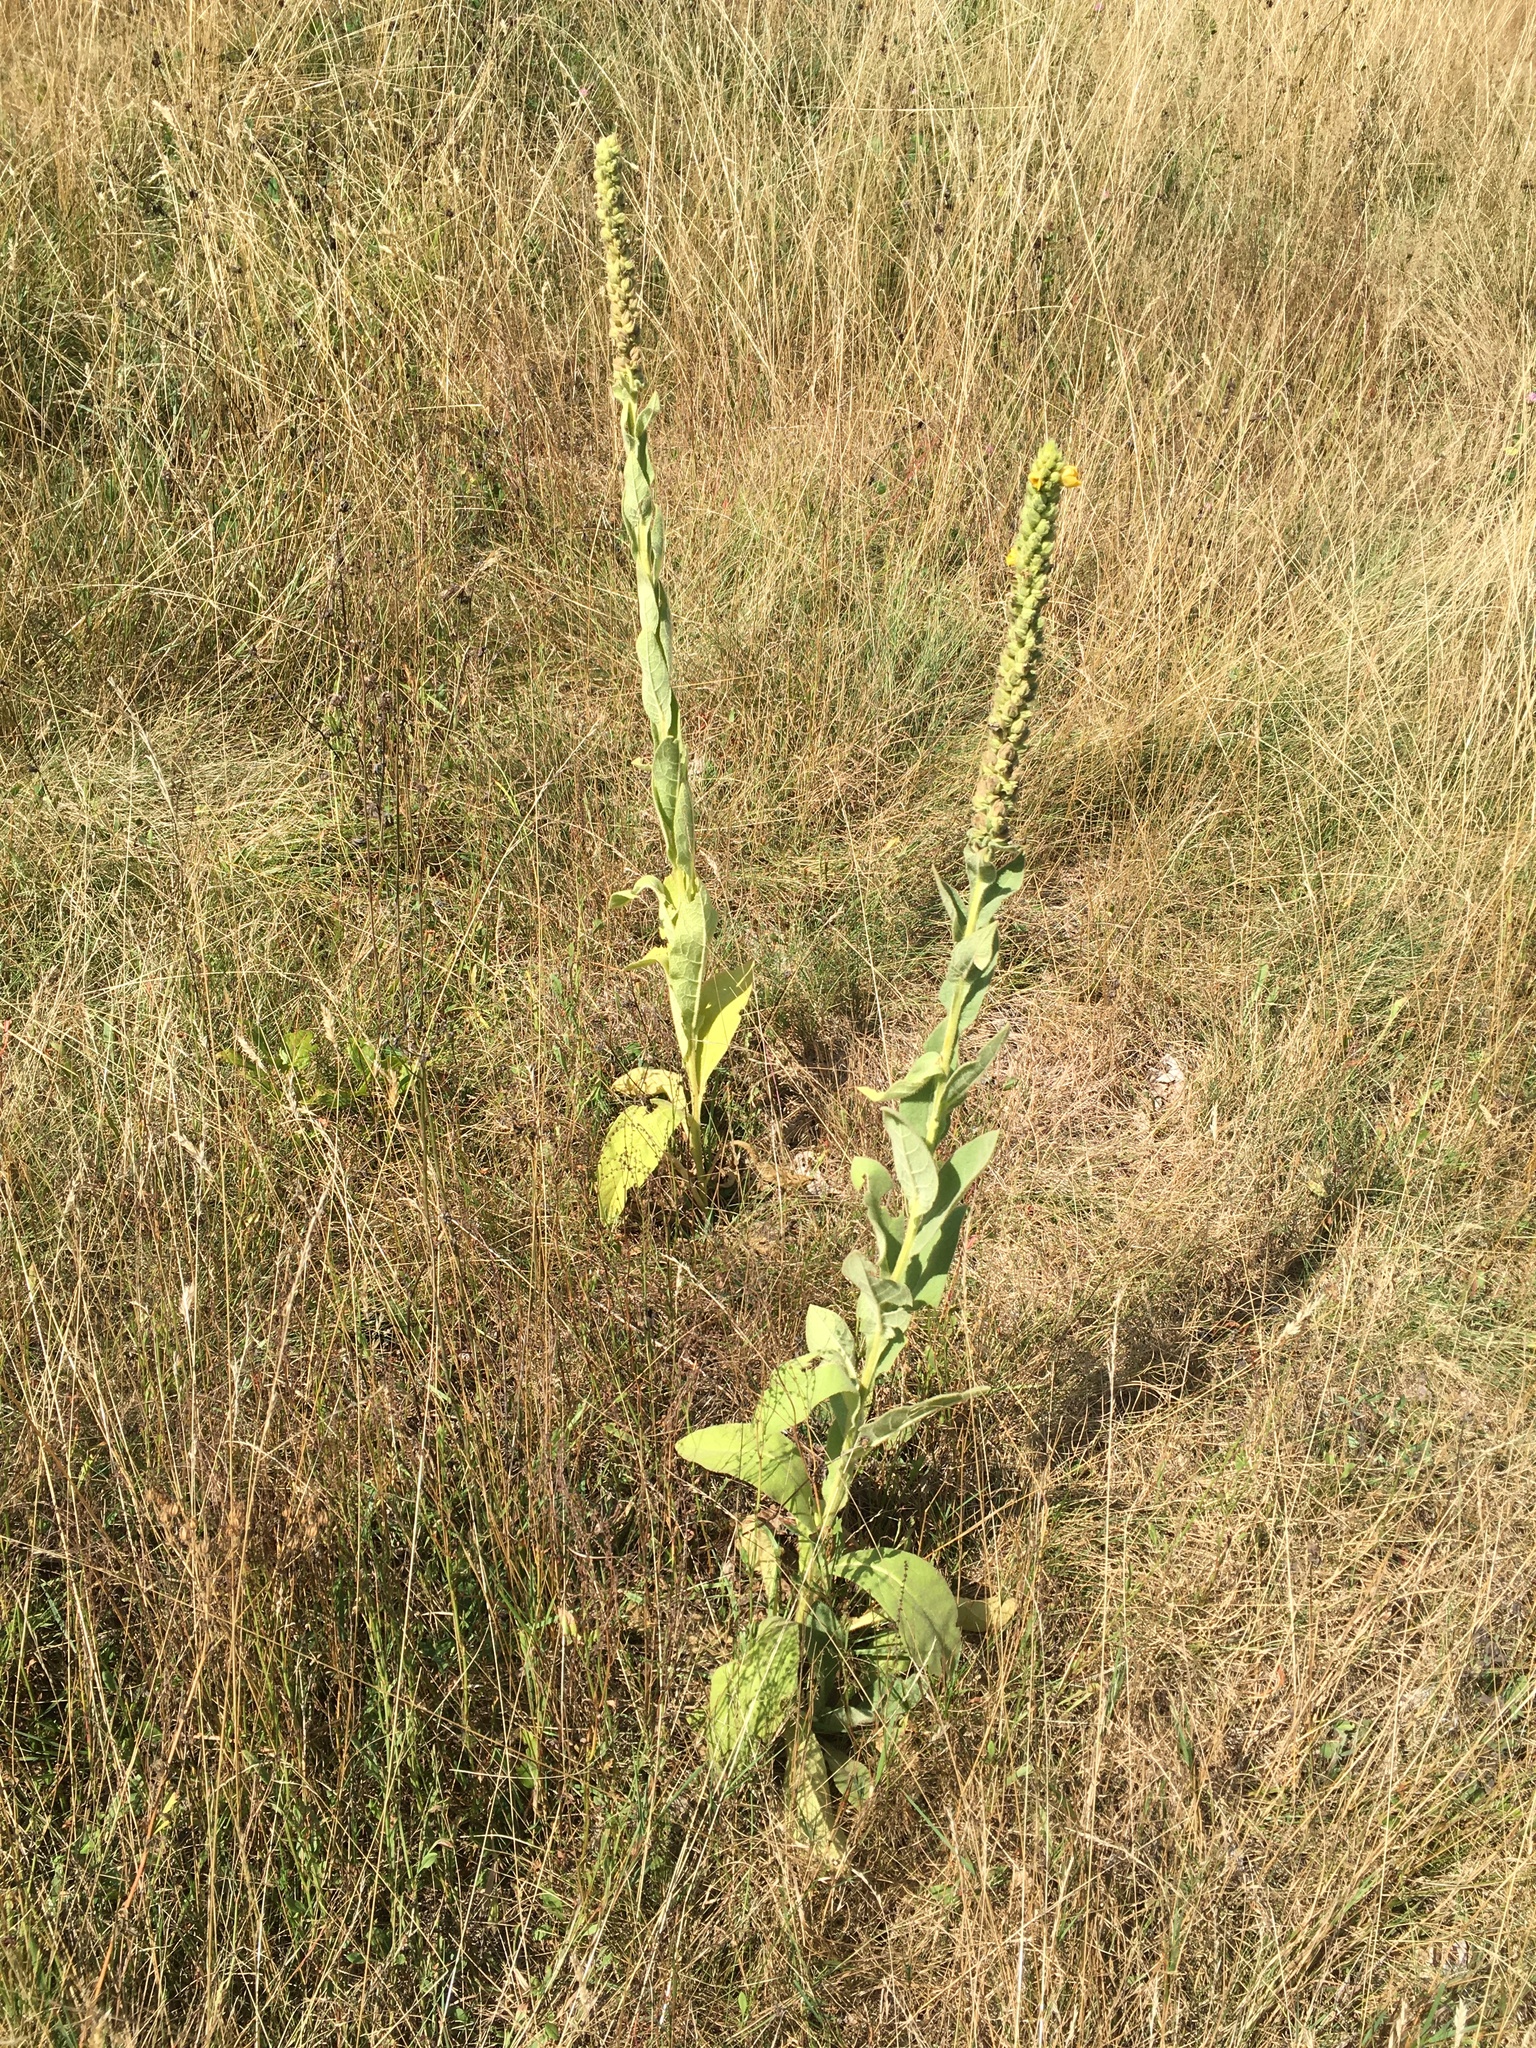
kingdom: Plantae
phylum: Tracheophyta
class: Magnoliopsida
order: Lamiales
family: Scrophulariaceae
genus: Verbascum
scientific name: Verbascum thapsus
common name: Common mullein
